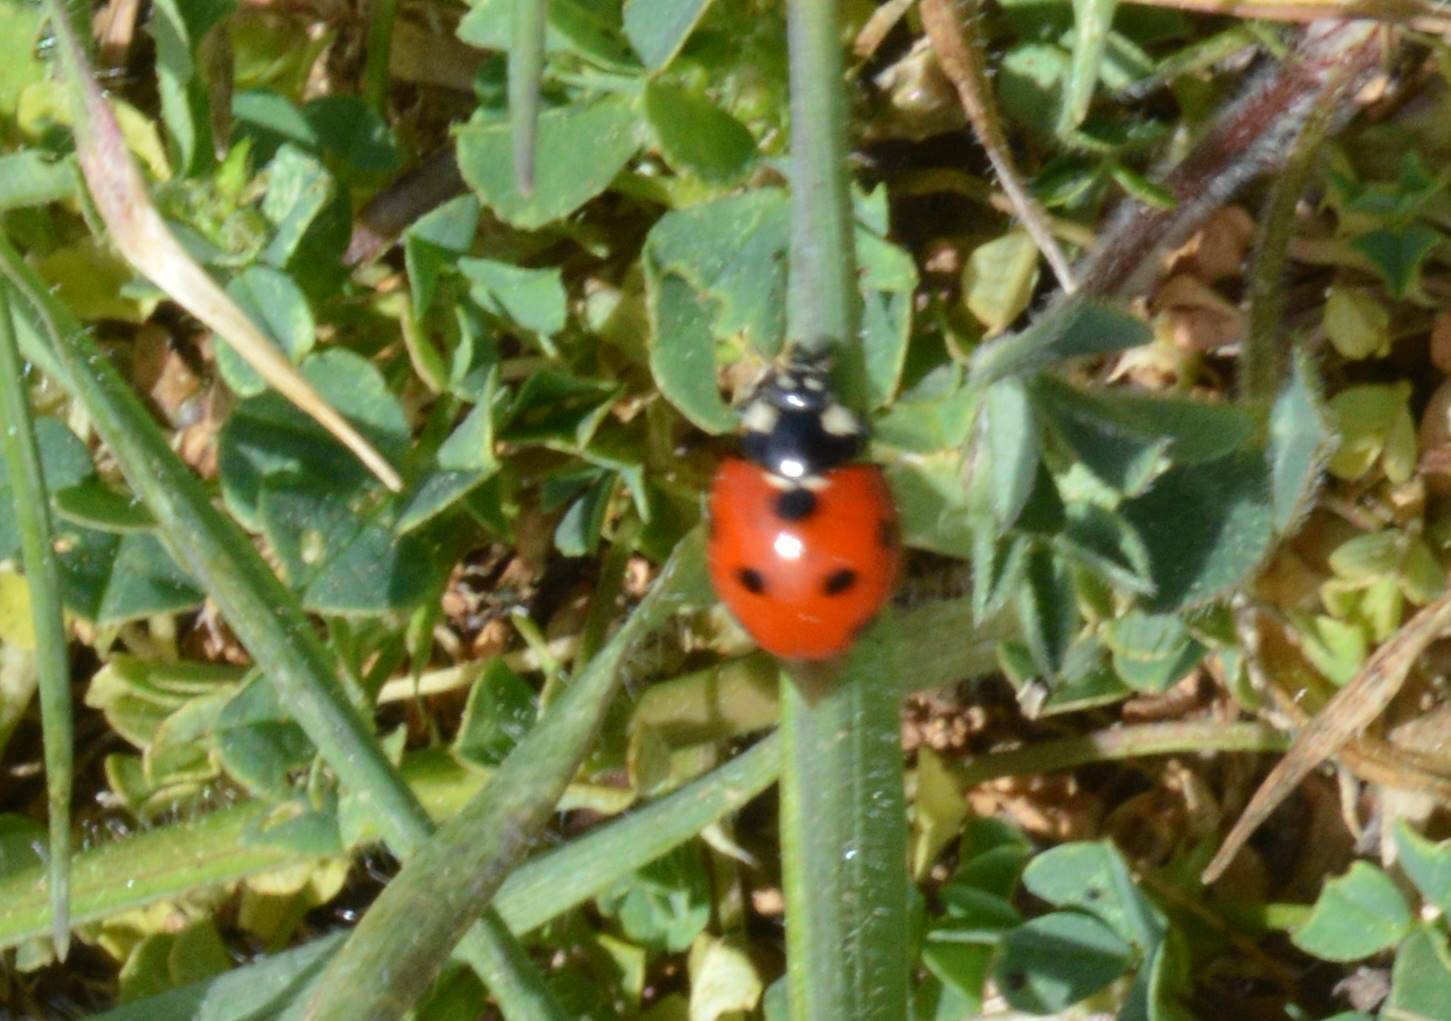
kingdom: Animalia
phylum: Arthropoda
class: Insecta
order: Coleoptera
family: Coccinellidae
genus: Coccinella
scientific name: Coccinella algerica
